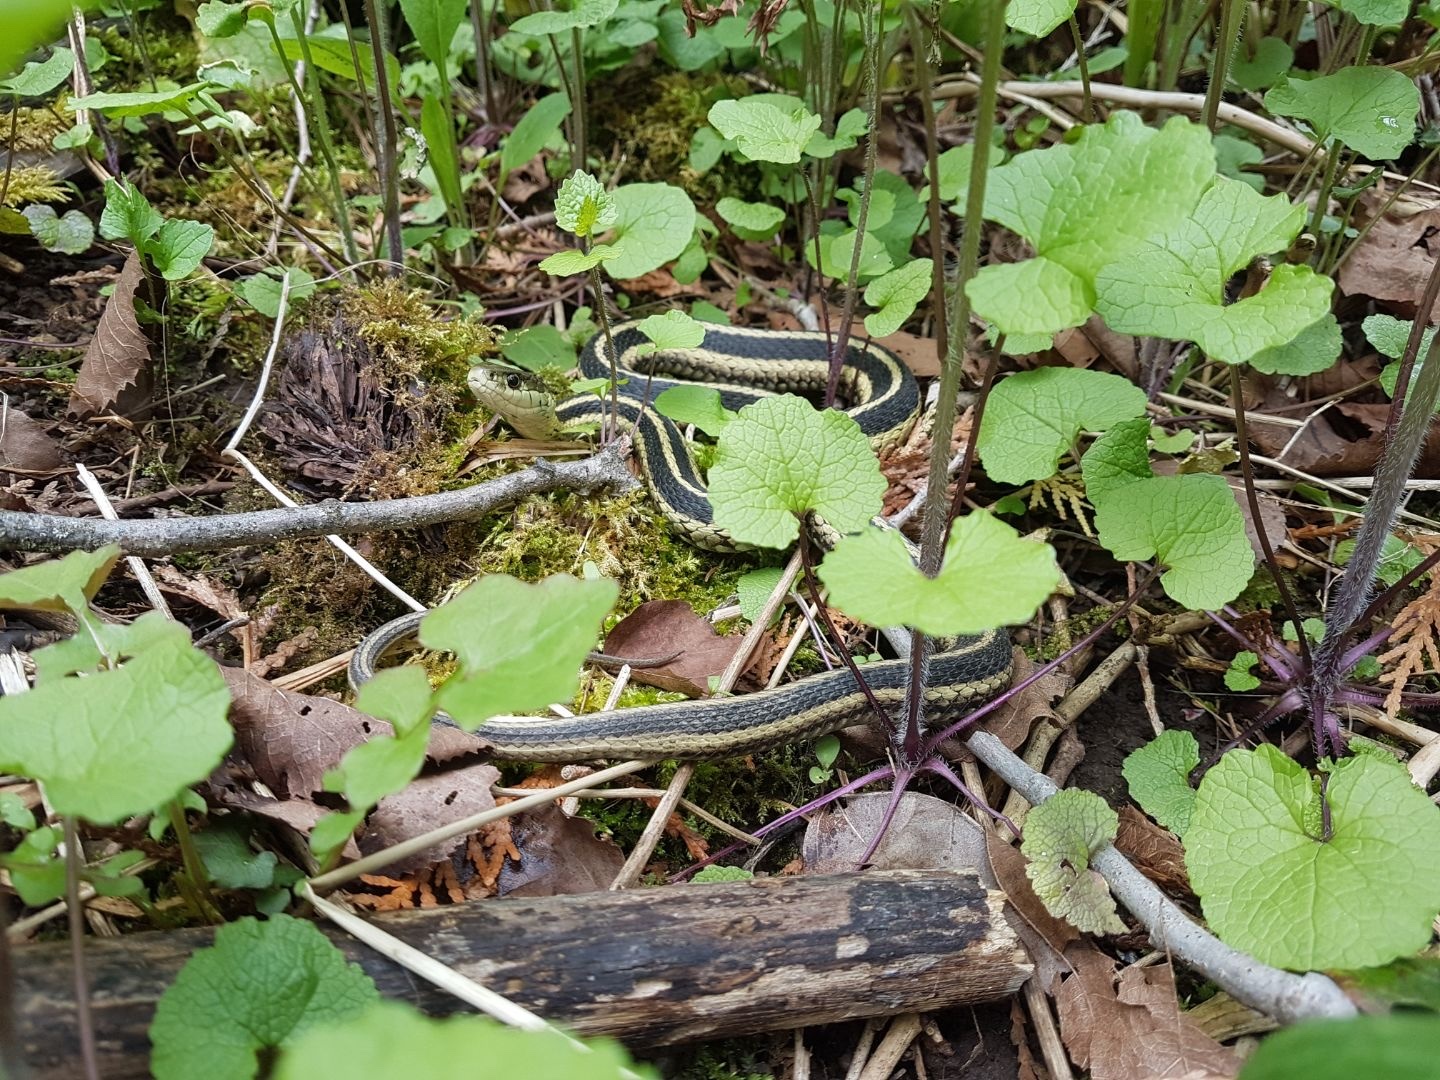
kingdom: Animalia
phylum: Chordata
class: Squamata
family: Colubridae
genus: Thamnophis
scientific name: Thamnophis sirtalis
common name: Common garter snake
